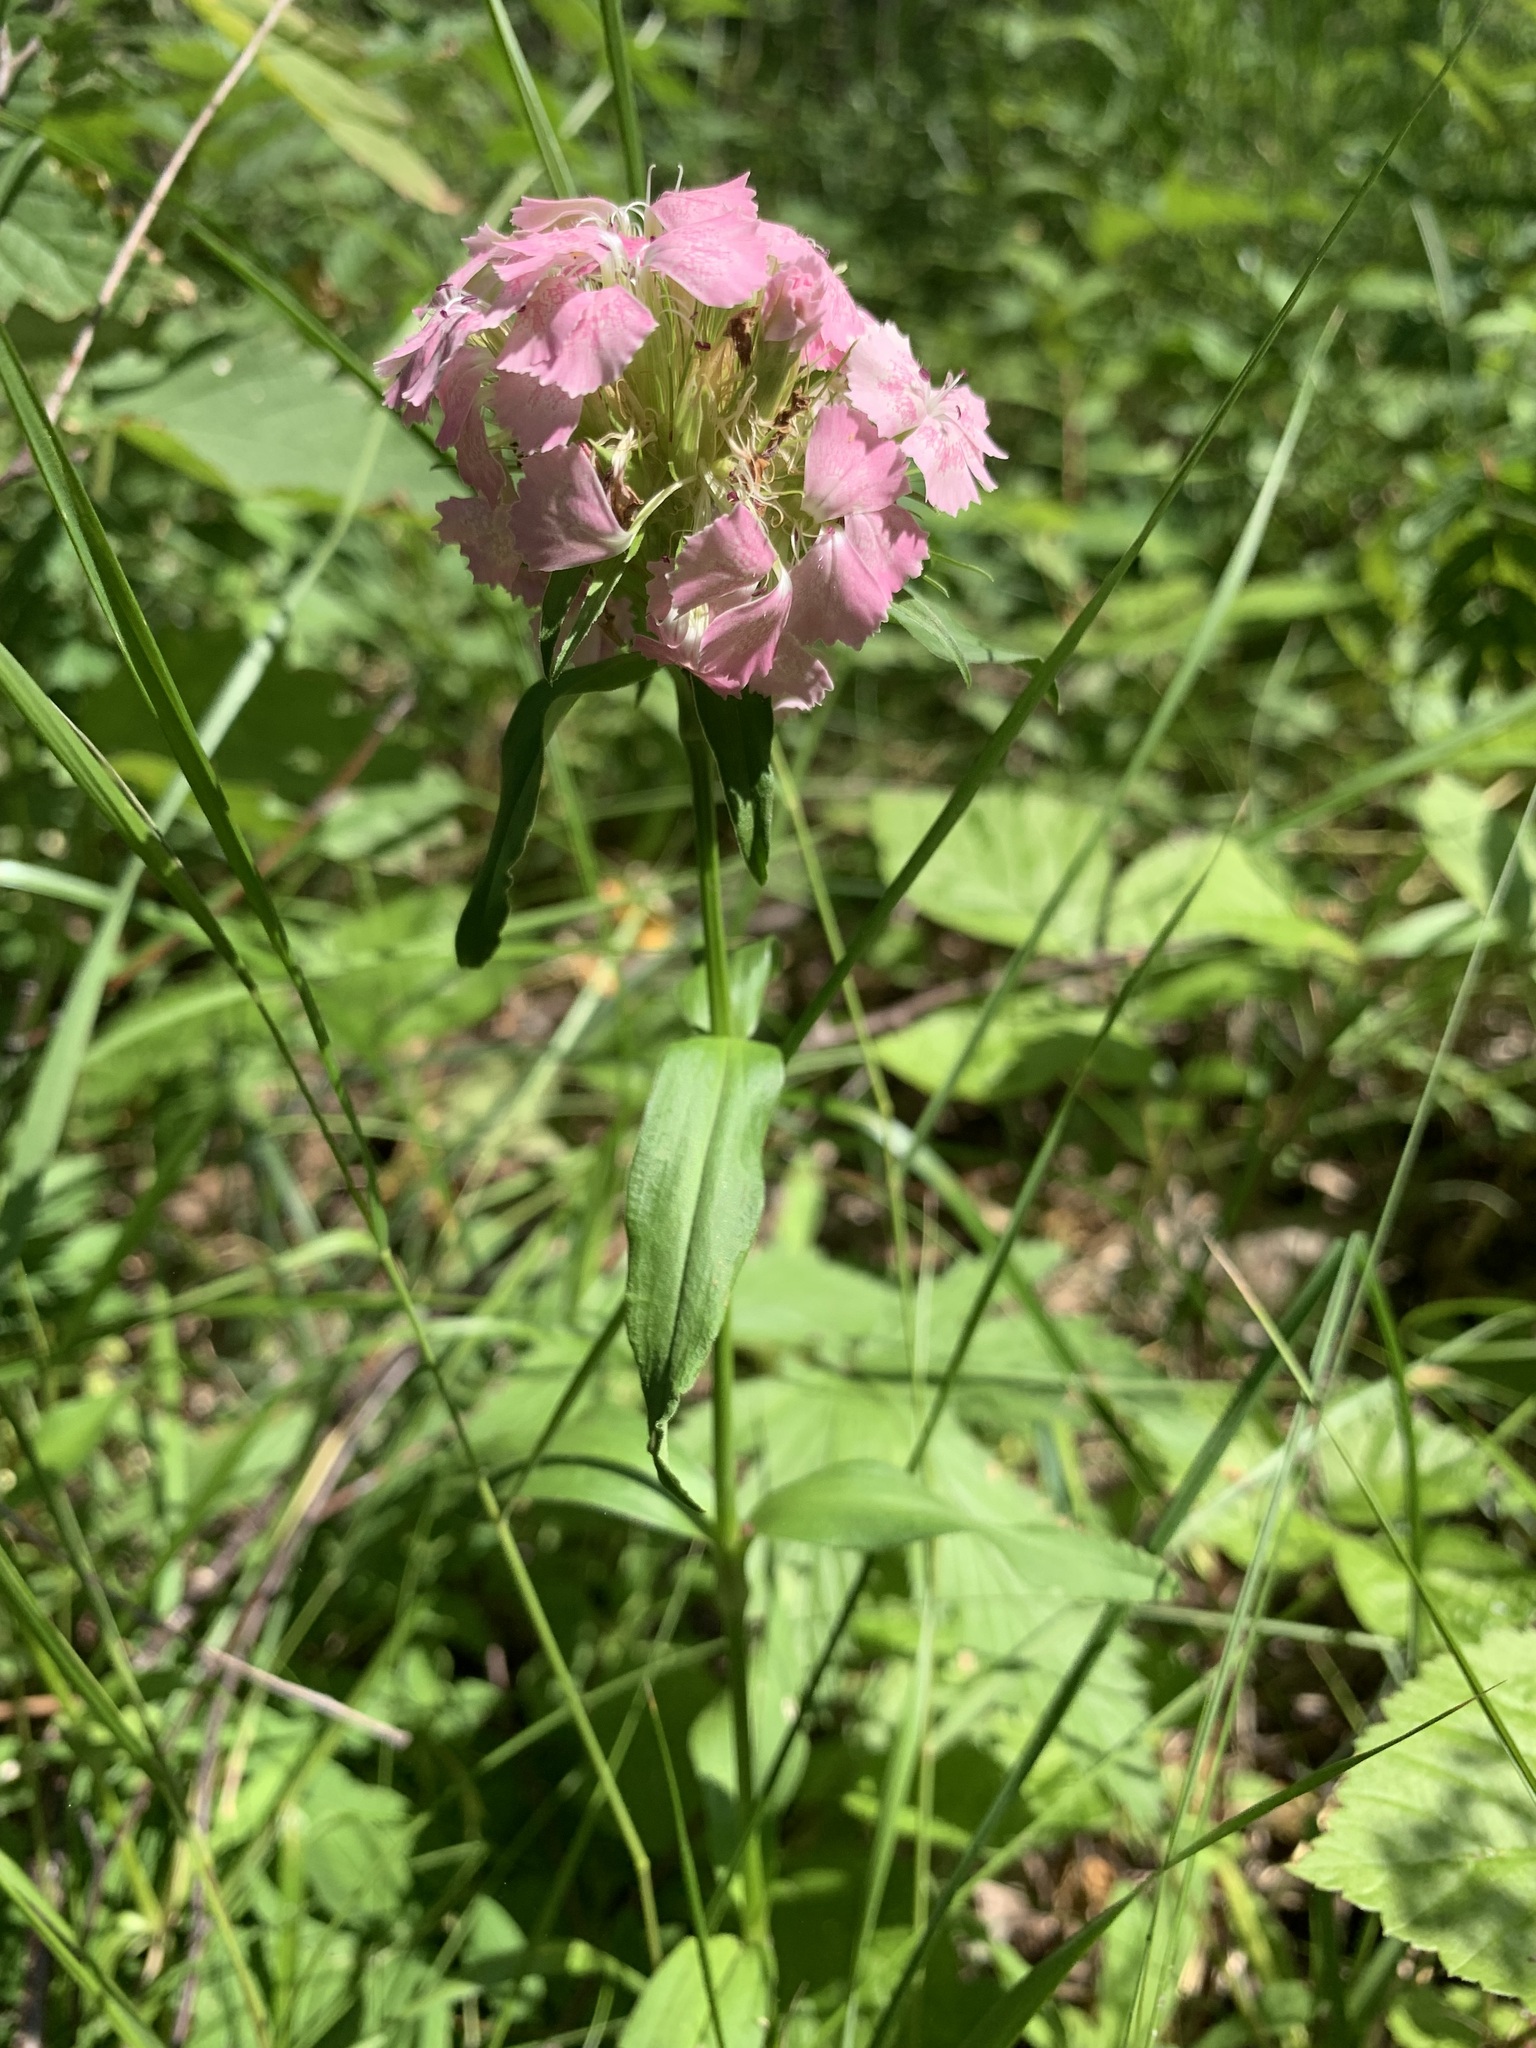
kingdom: Plantae
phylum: Tracheophyta
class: Magnoliopsida
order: Caryophyllales
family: Caryophyllaceae
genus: Dianthus
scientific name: Dianthus barbatus
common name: Sweet-william
